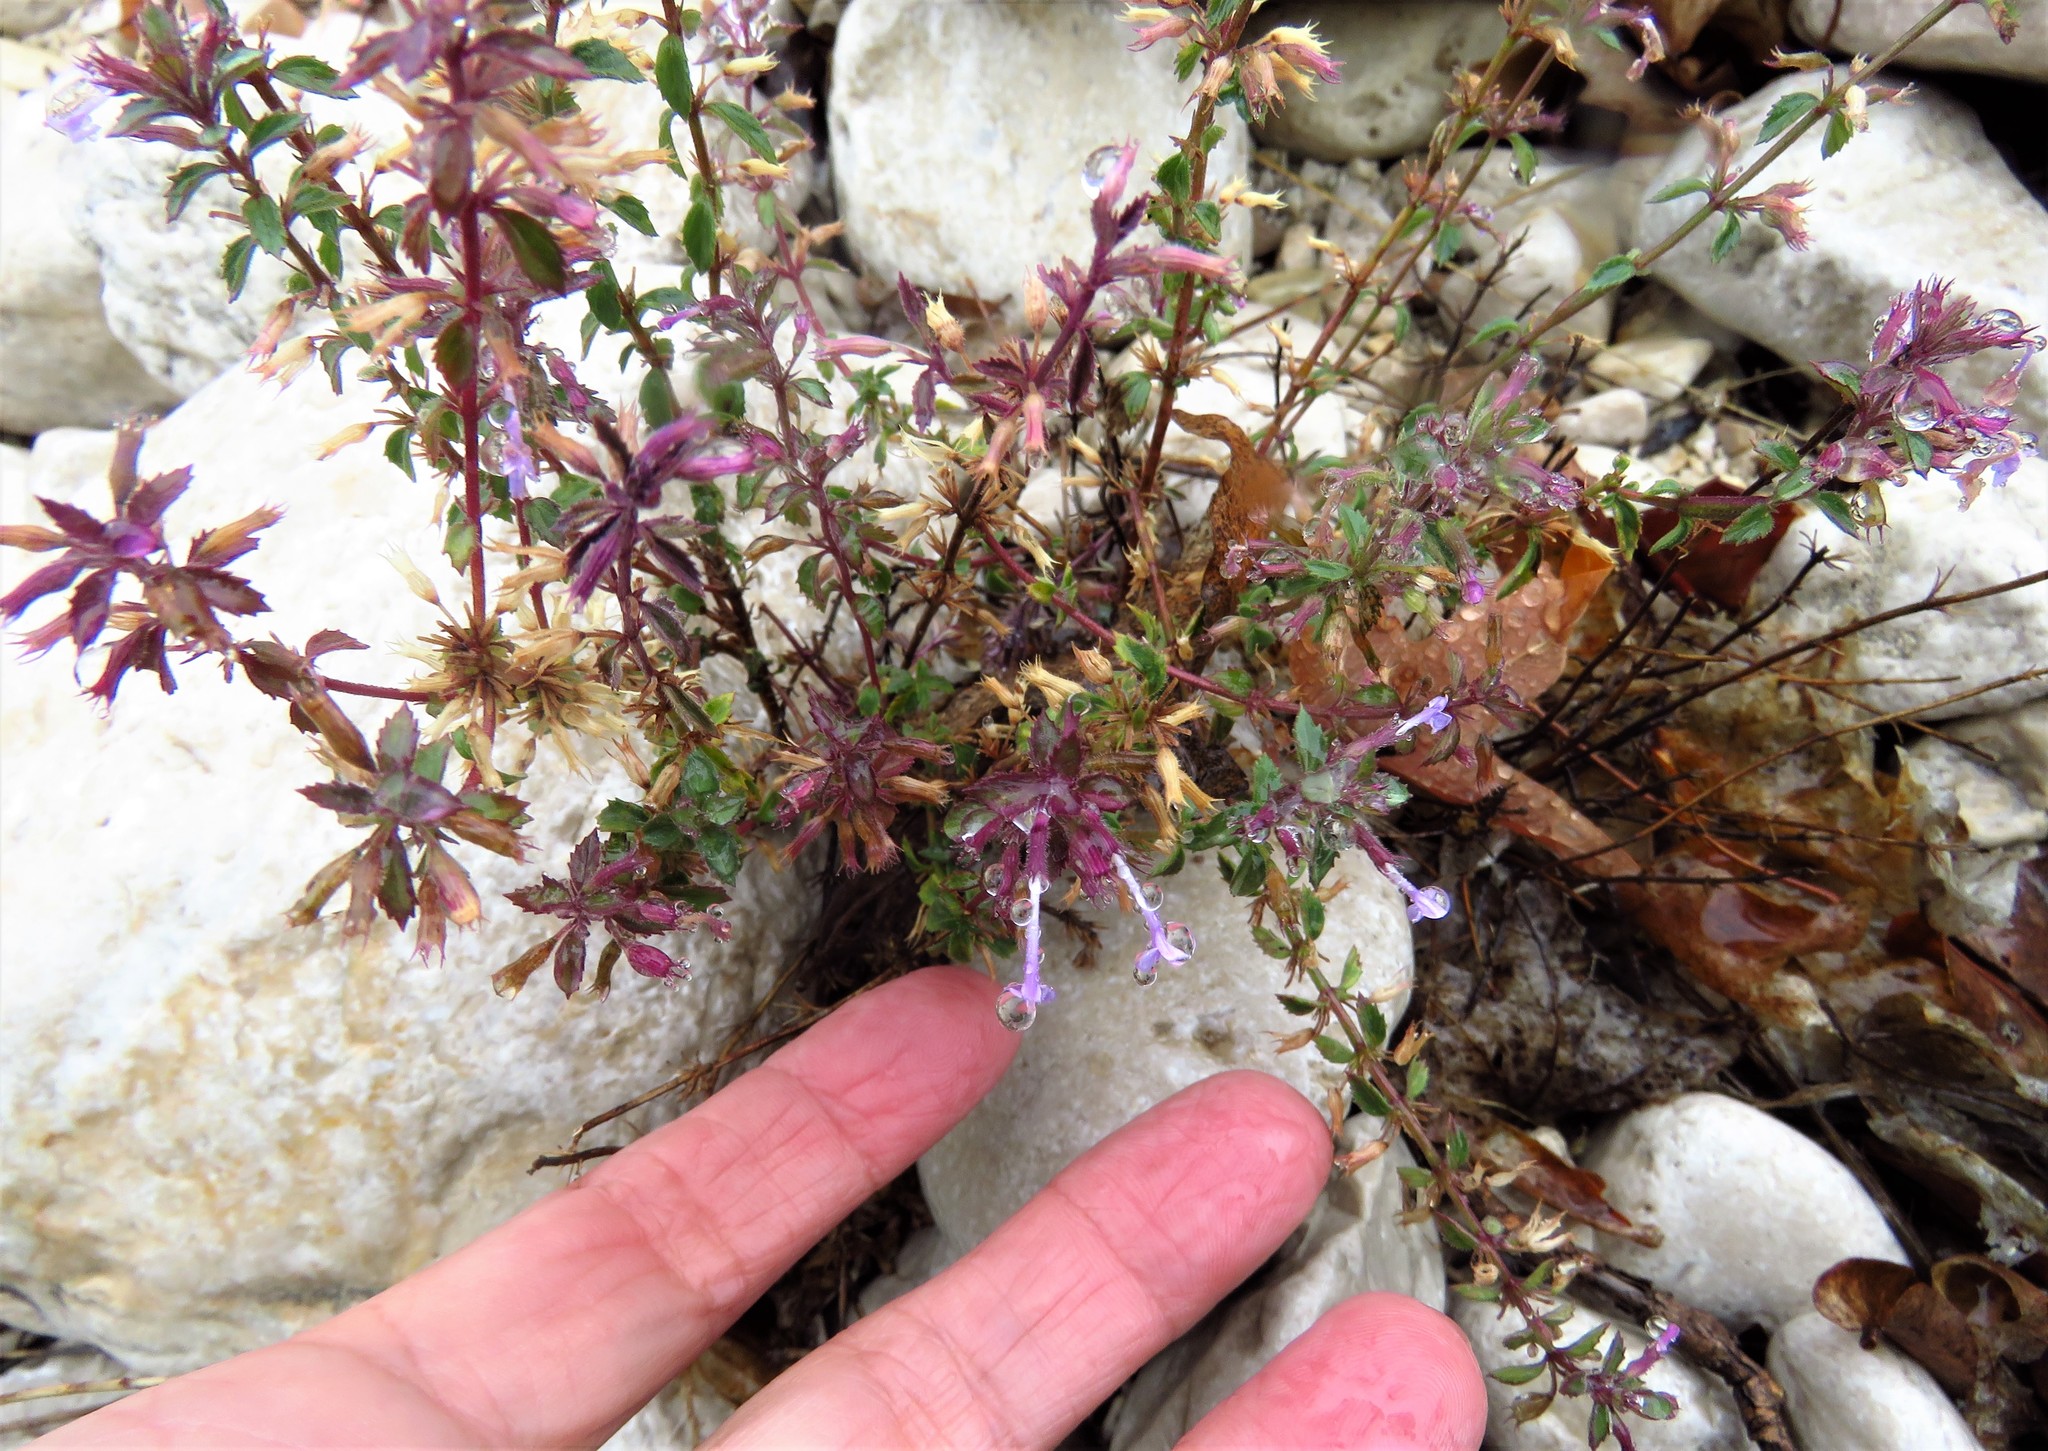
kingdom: Plantae
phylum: Tracheophyta
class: Magnoliopsida
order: Lamiales
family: Lamiaceae
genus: Hedeoma
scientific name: Hedeoma costata
